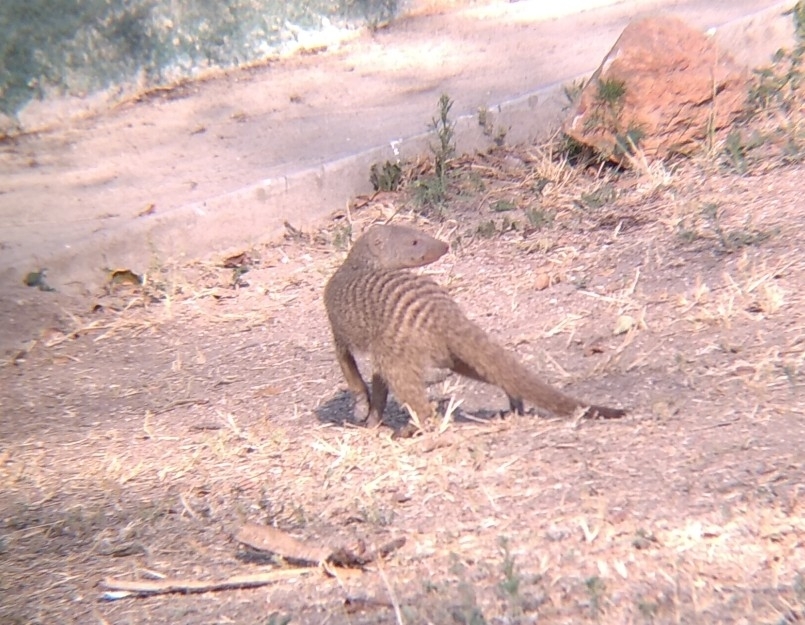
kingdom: Animalia
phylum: Chordata
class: Mammalia
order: Carnivora
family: Herpestidae
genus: Mungos
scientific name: Mungos mungo
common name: Banded mongoose
